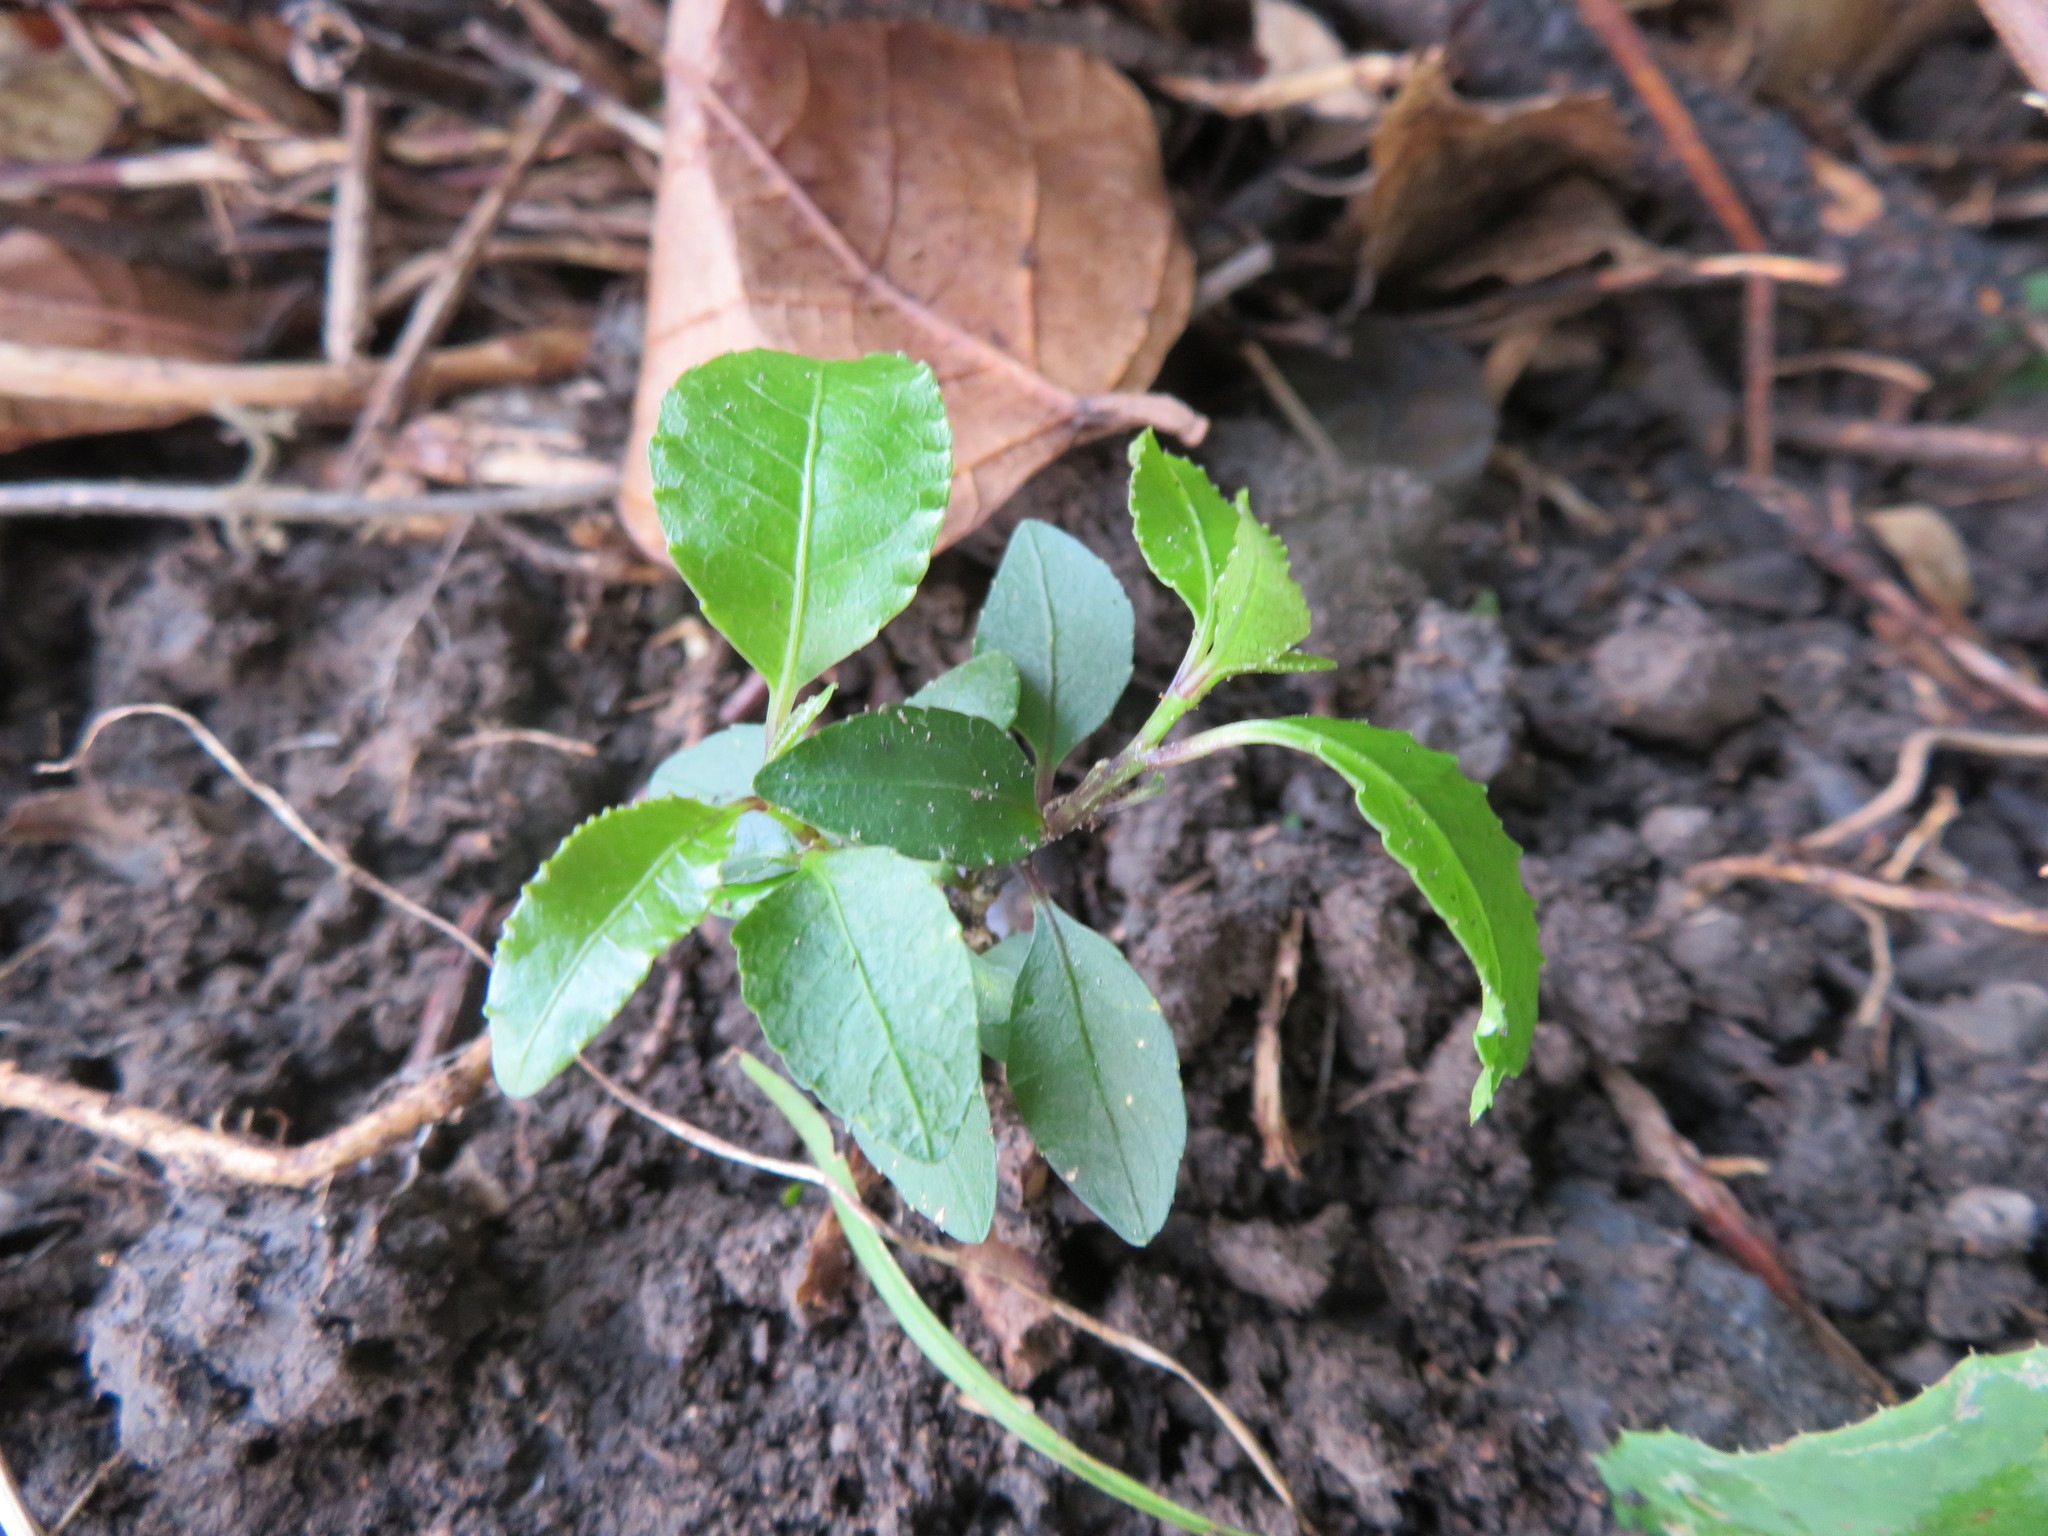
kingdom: Plantae
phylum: Tracheophyta
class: Magnoliopsida
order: Malpighiales
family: Violaceae
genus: Melicytus
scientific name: Melicytus ramiflorus
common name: Mahoe
